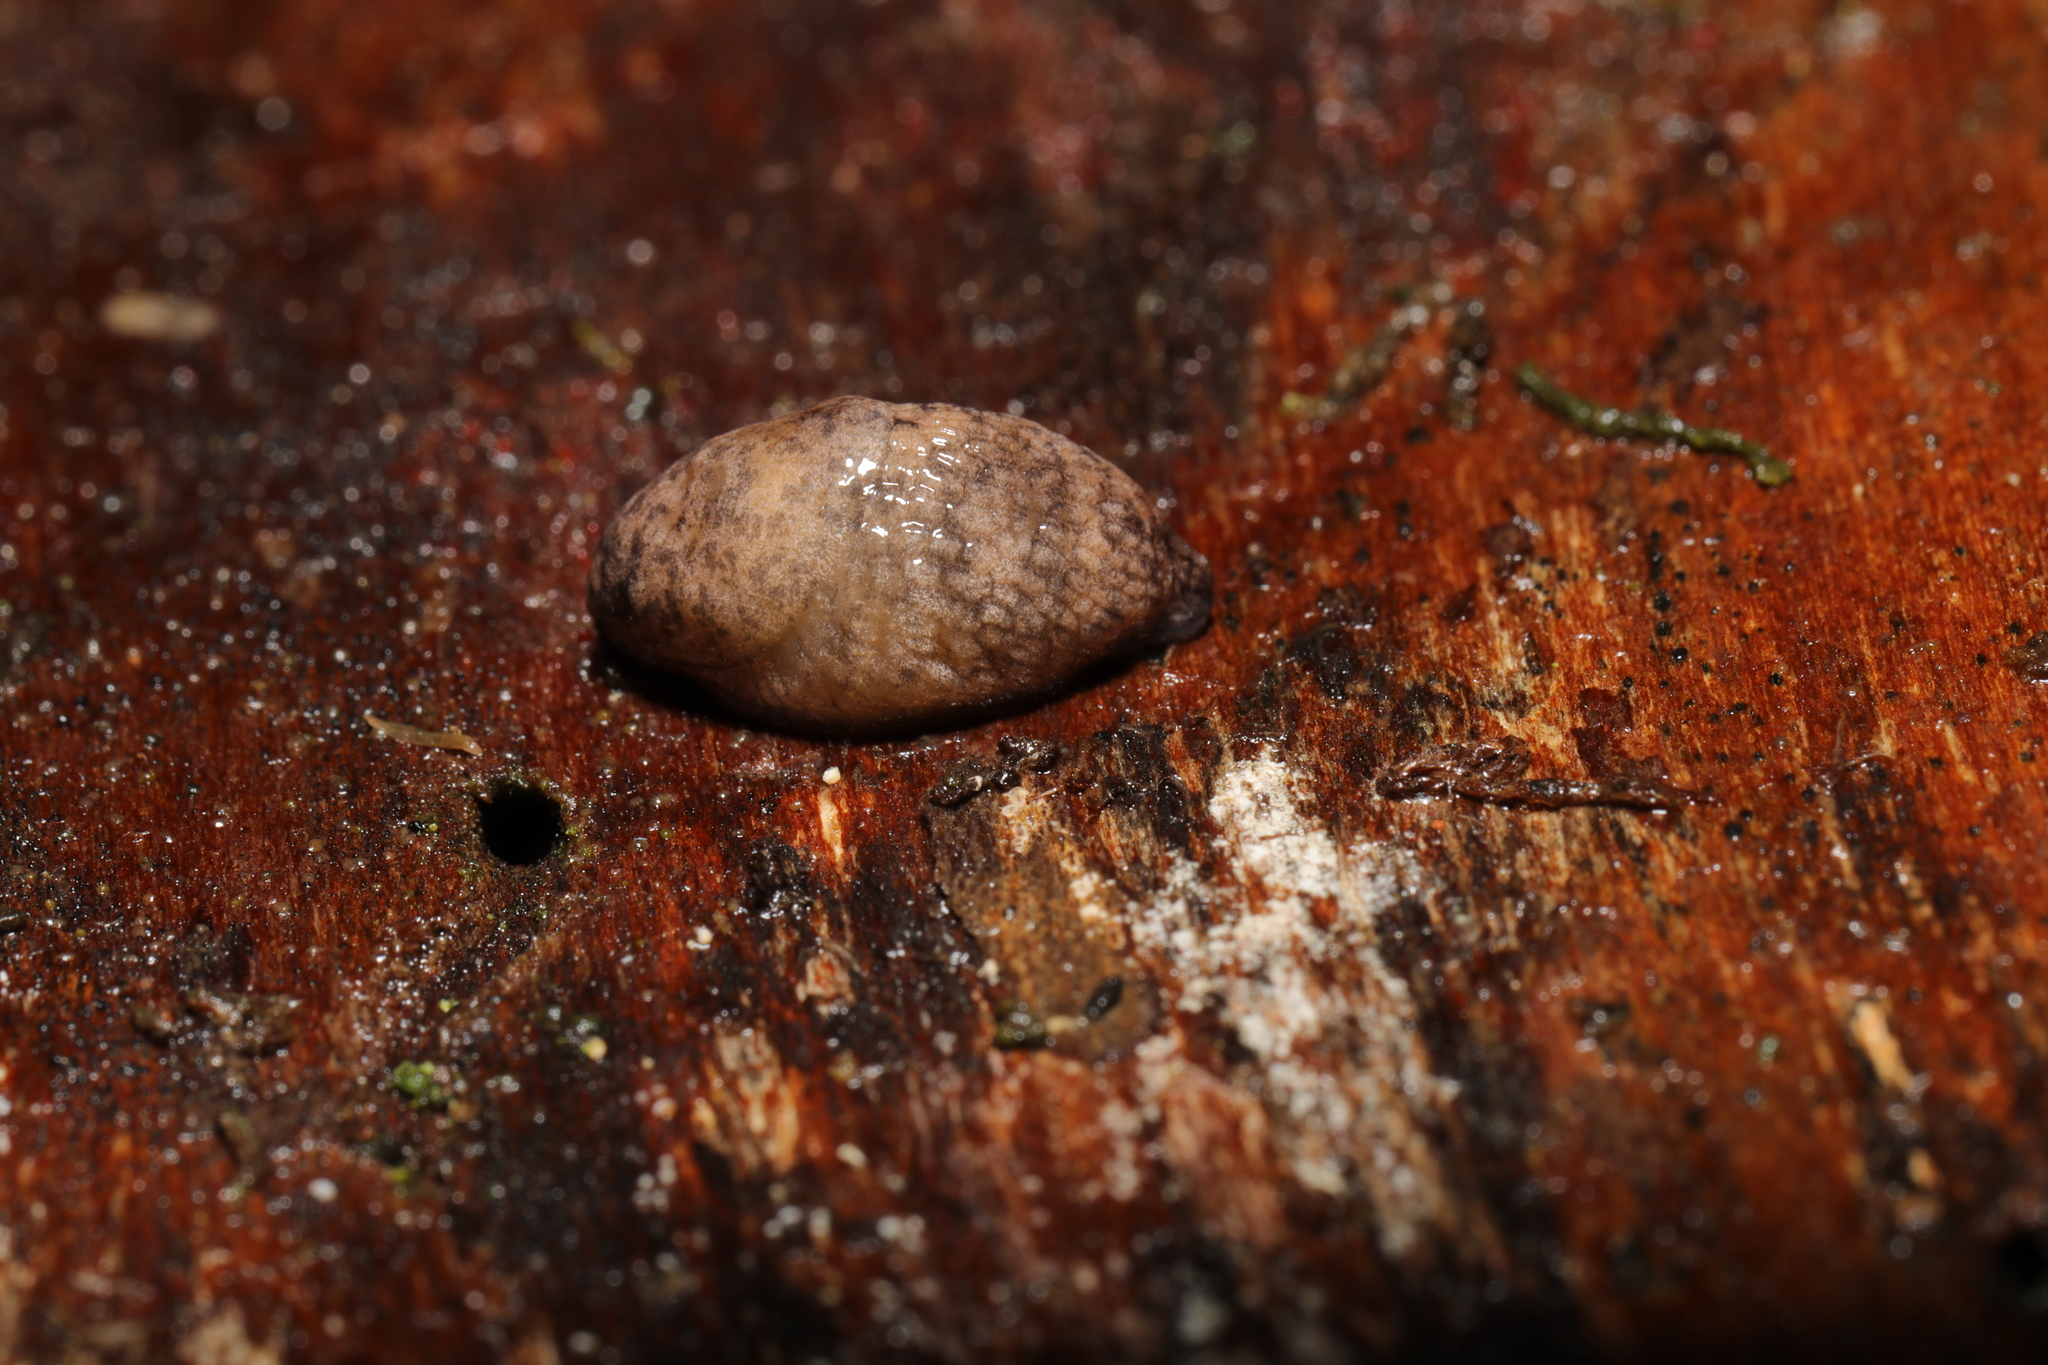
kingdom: Animalia
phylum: Mollusca
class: Gastropoda
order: Stylommatophora
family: Agriolimacidae
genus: Deroceras
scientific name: Deroceras reticulatum
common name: Gray field slug
